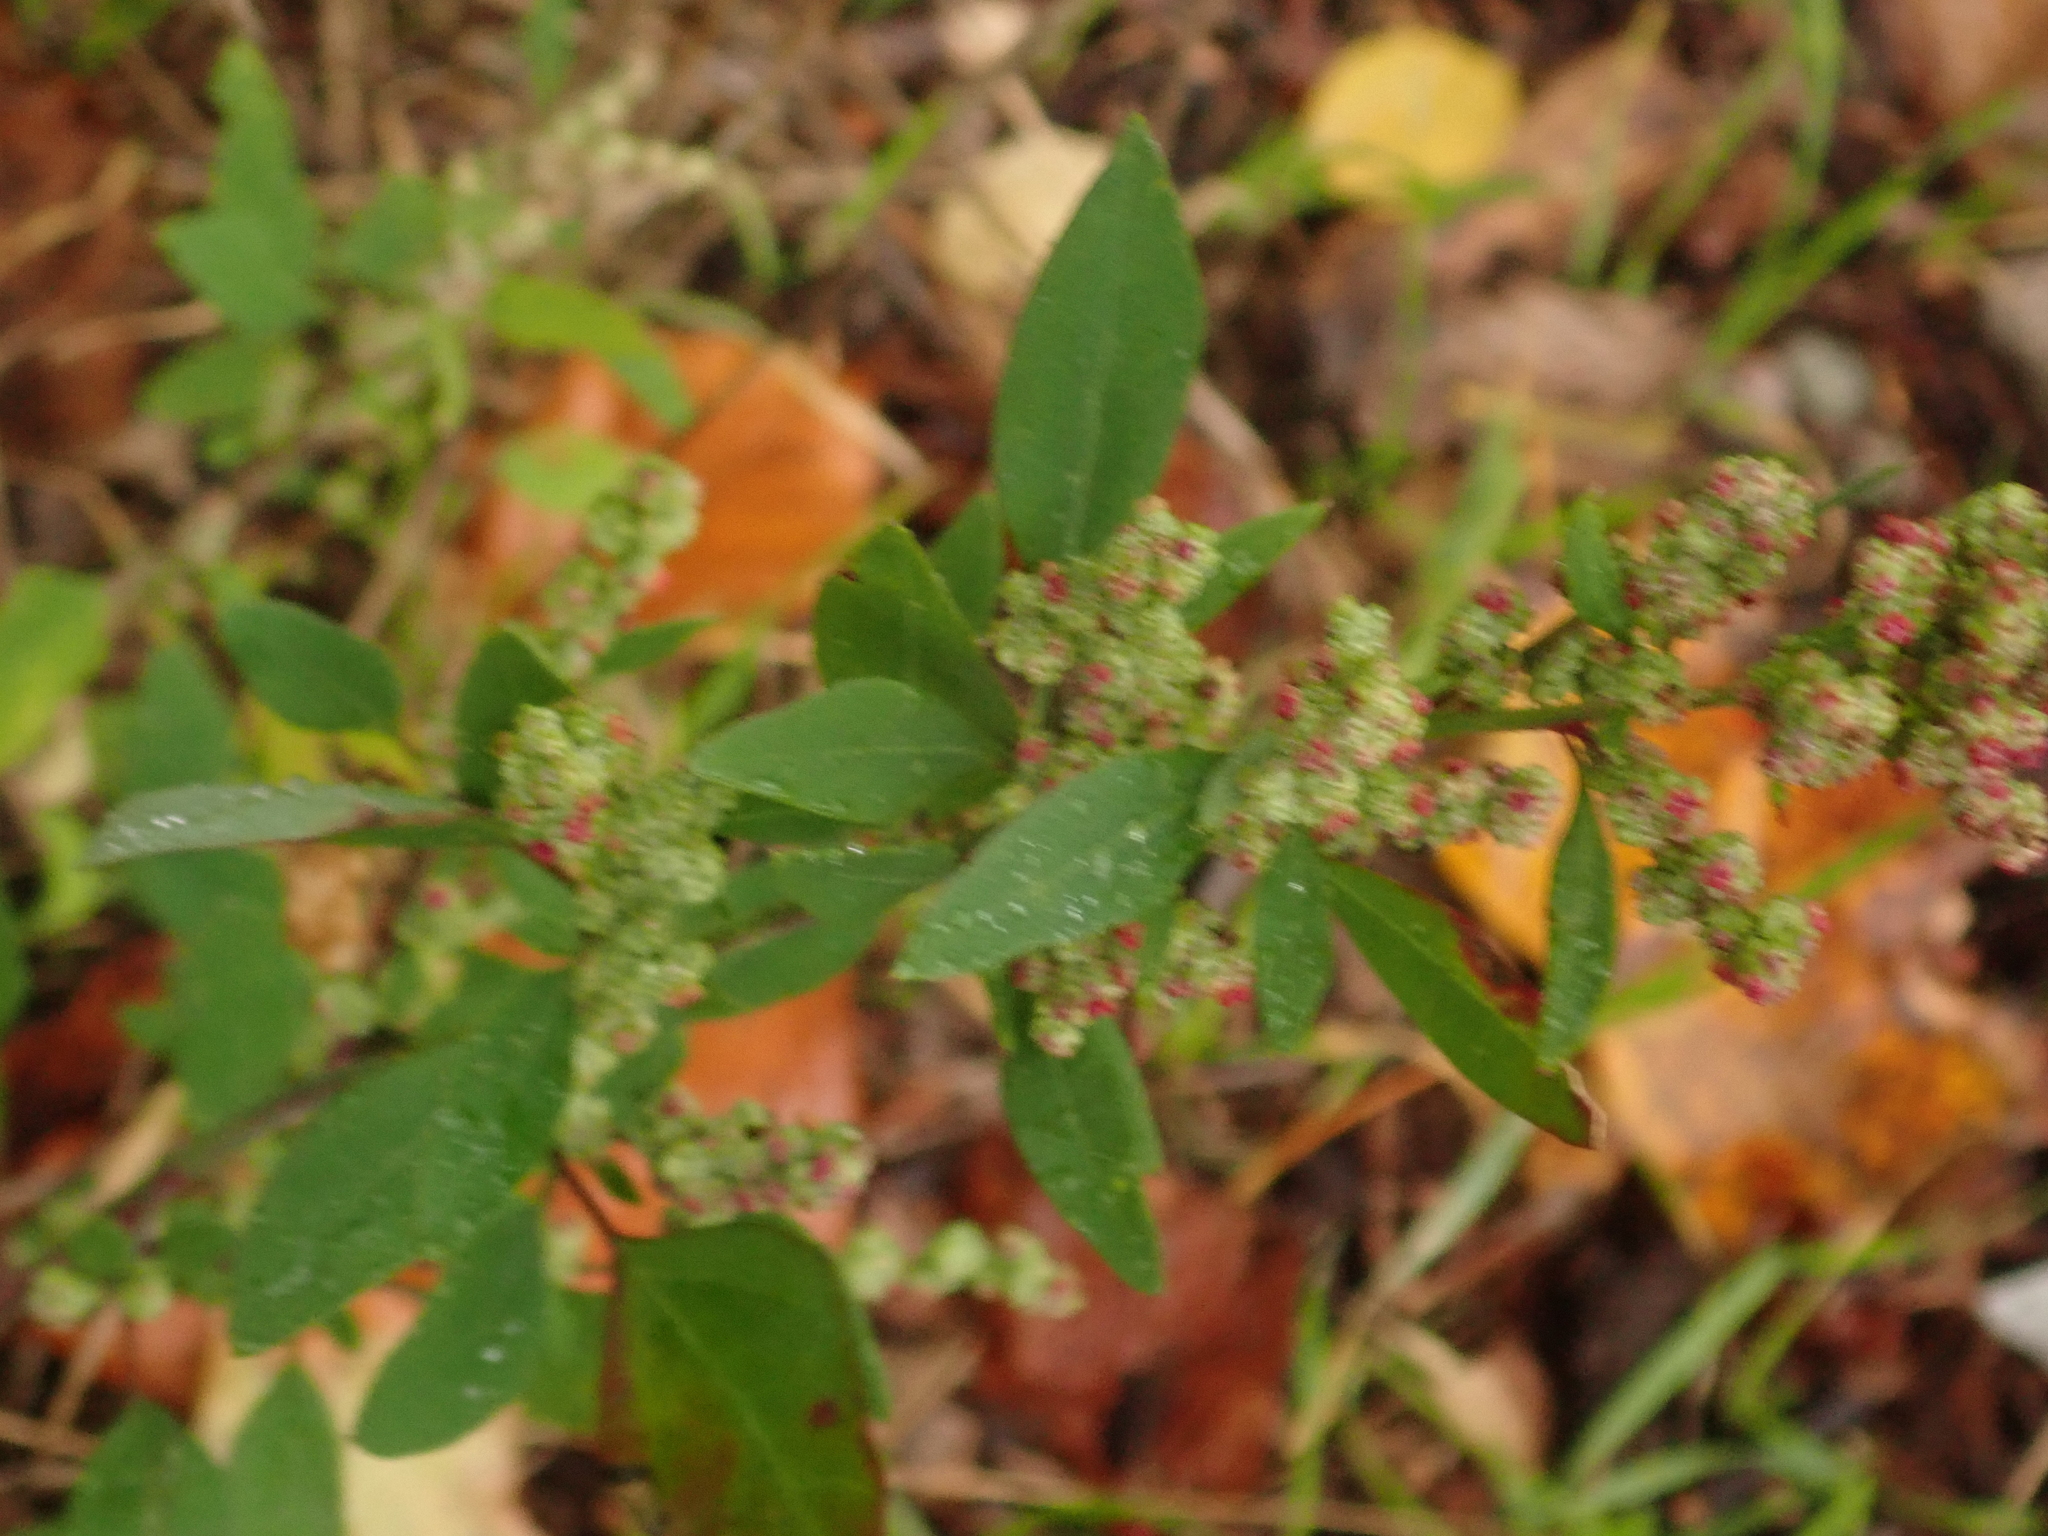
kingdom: Plantae
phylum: Tracheophyta
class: Magnoliopsida
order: Caryophyllales
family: Amaranthaceae
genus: Chenopodium
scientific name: Chenopodium album
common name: Fat-hen
